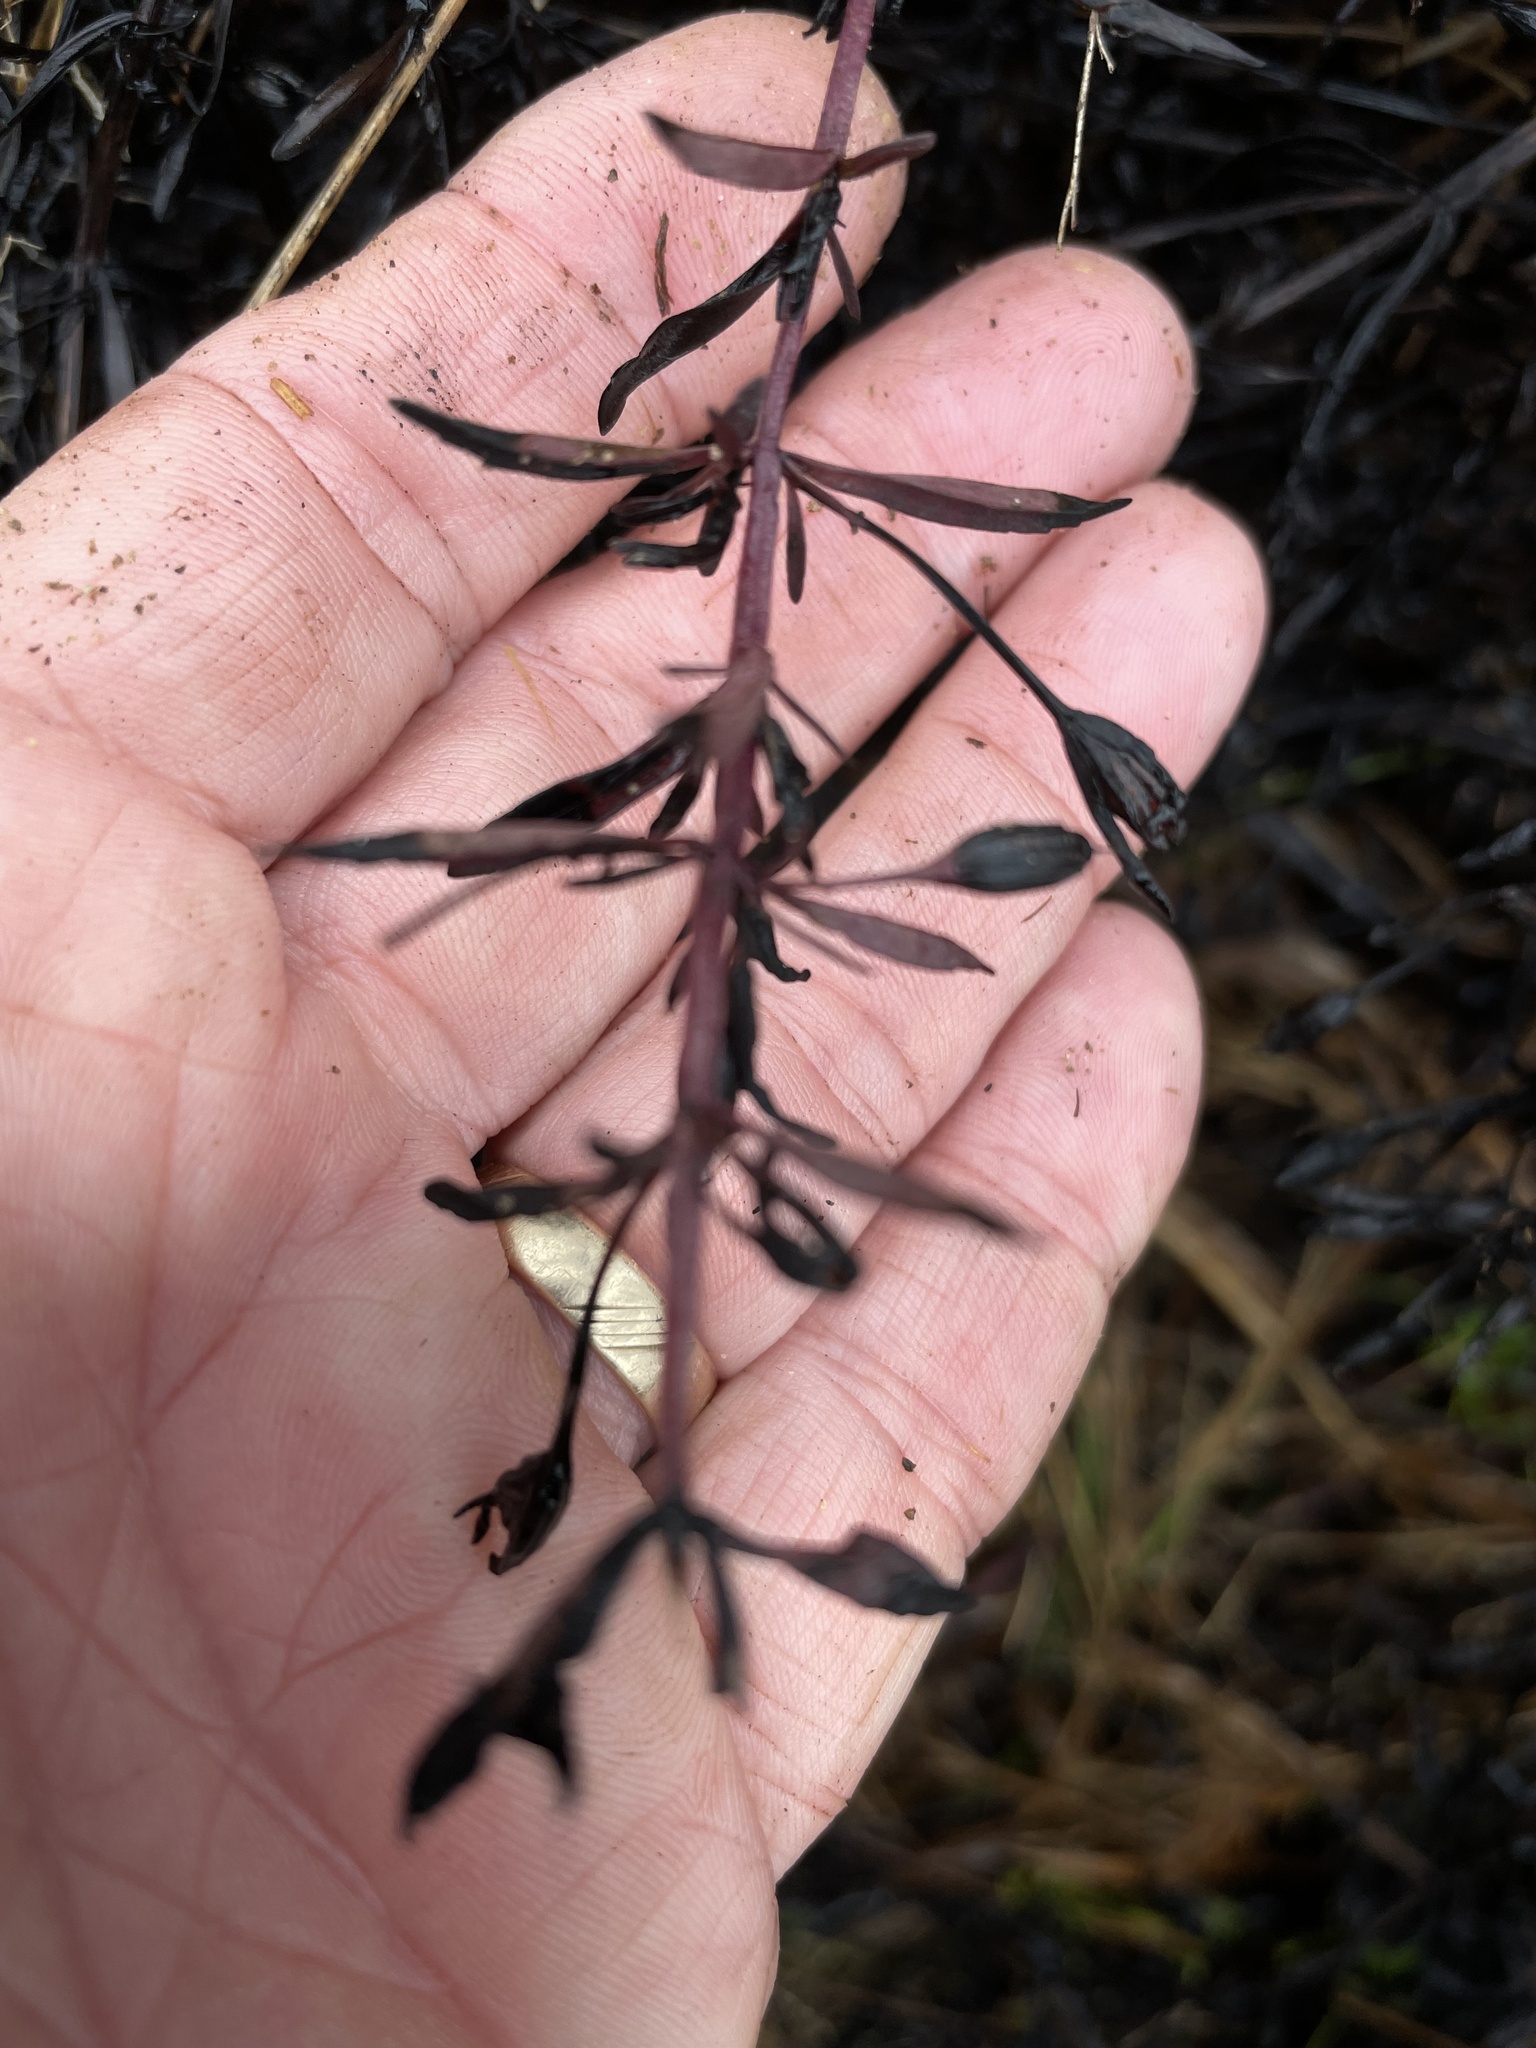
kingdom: Plantae
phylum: Tracheophyta
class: Magnoliopsida
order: Lamiales
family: Plantaginaceae
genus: Mecardonia
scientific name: Mecardonia acuminata
